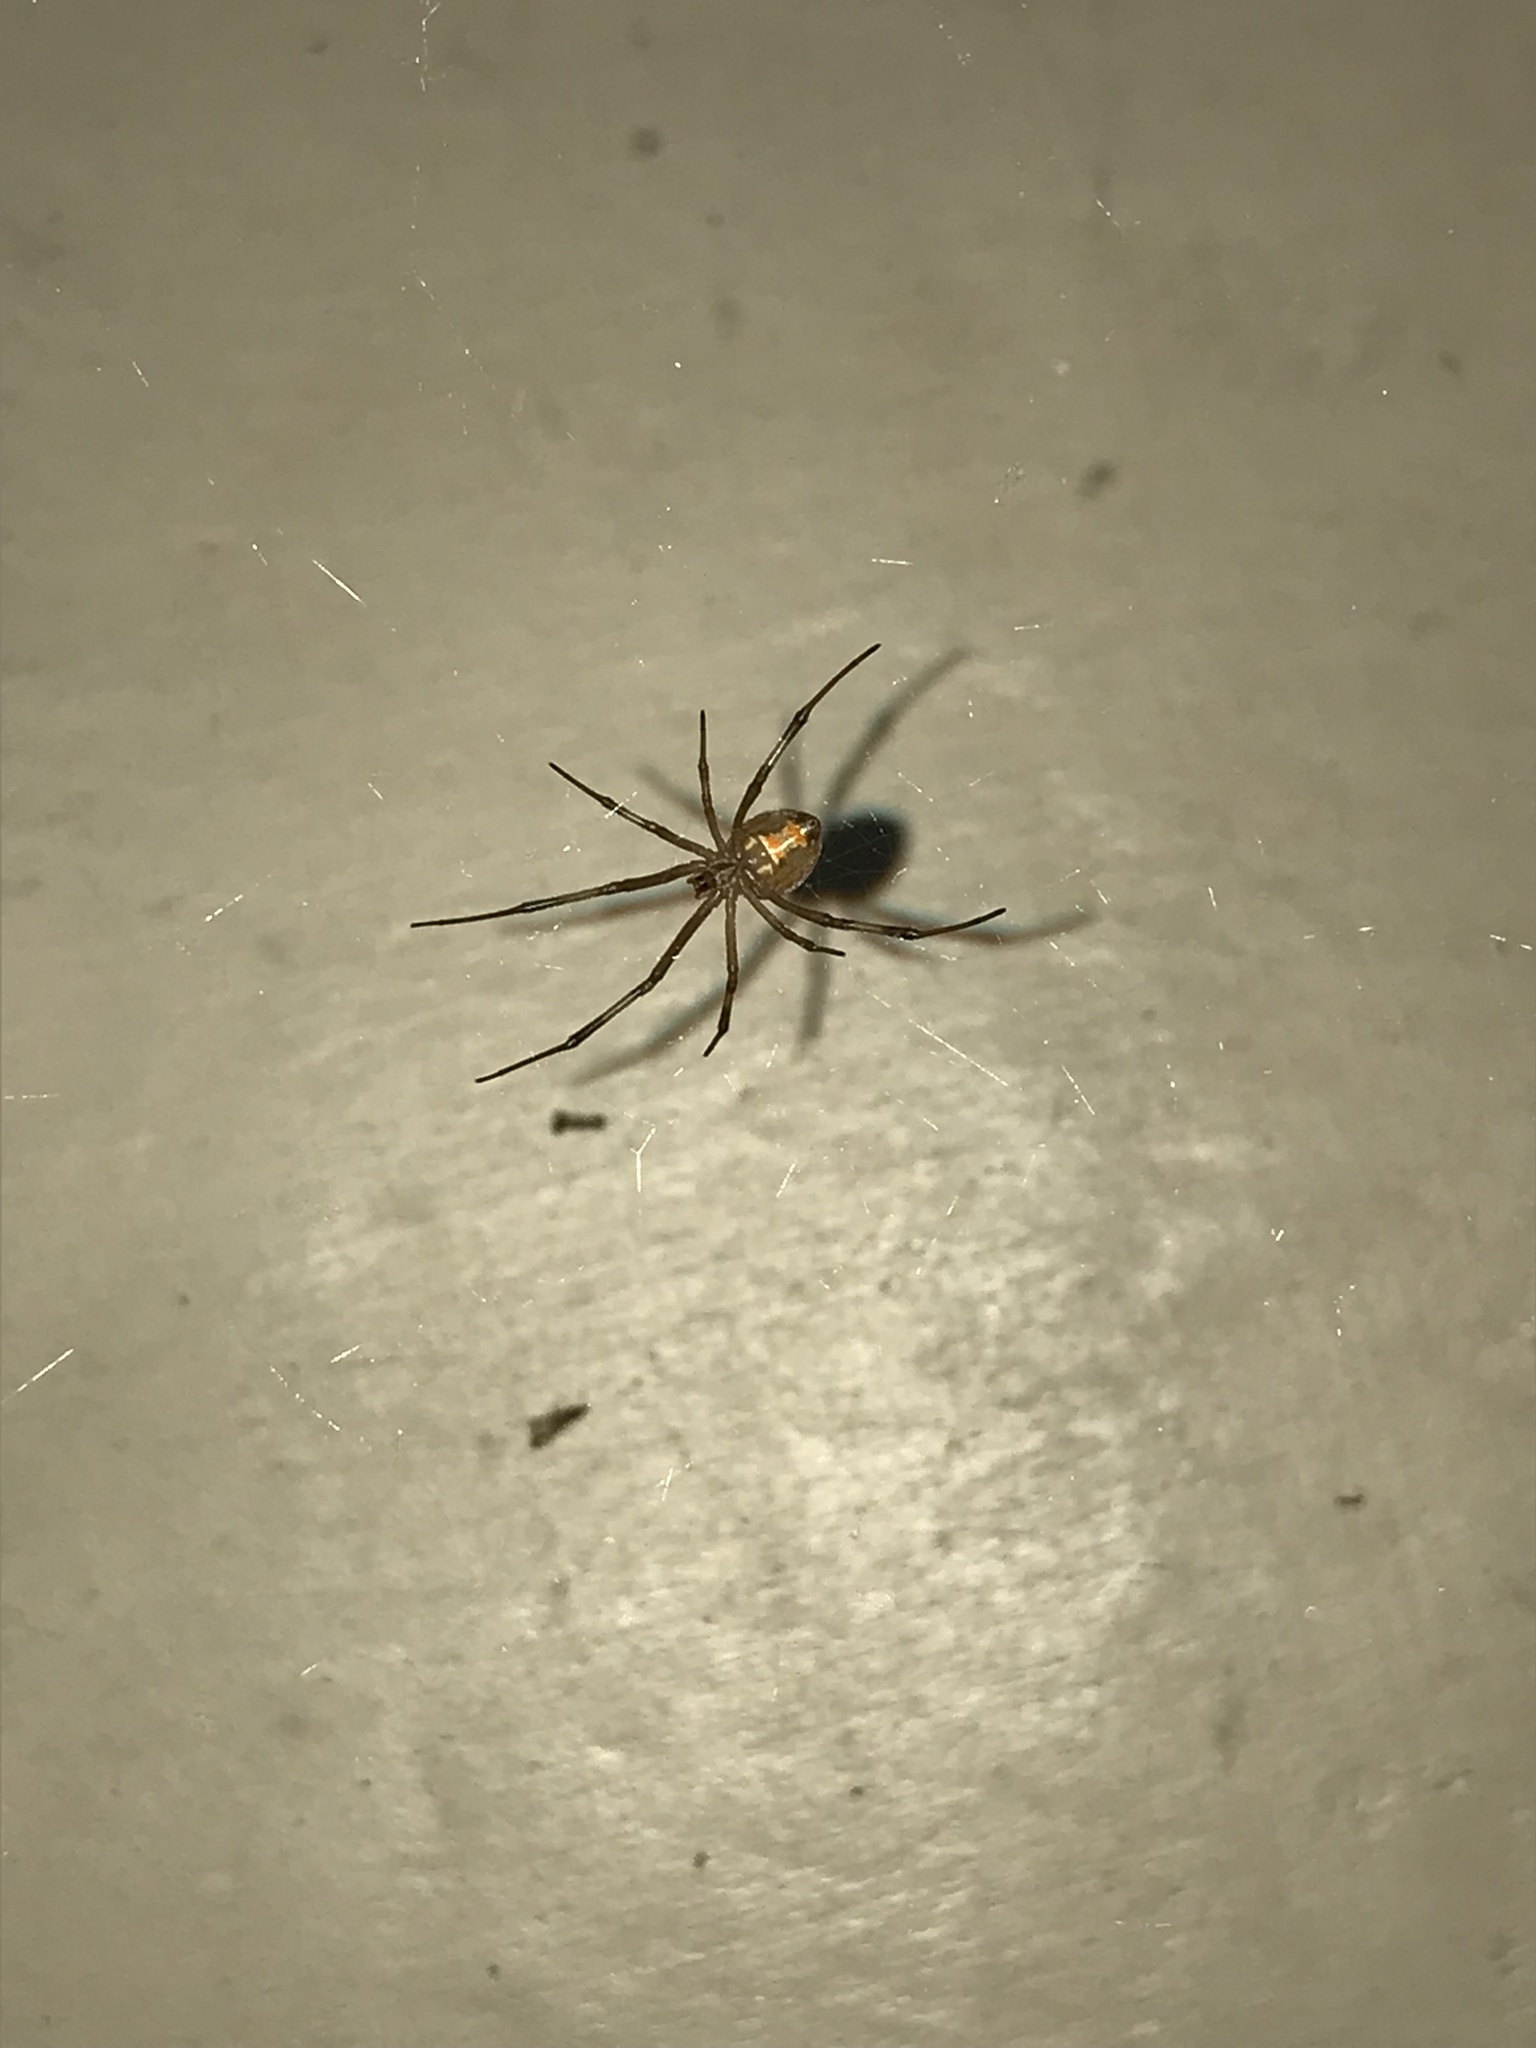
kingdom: Animalia
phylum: Arthropoda
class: Arachnida
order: Araneae
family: Theridiidae
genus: Latrodectus
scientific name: Latrodectus geometricus
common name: Brown widow spider
